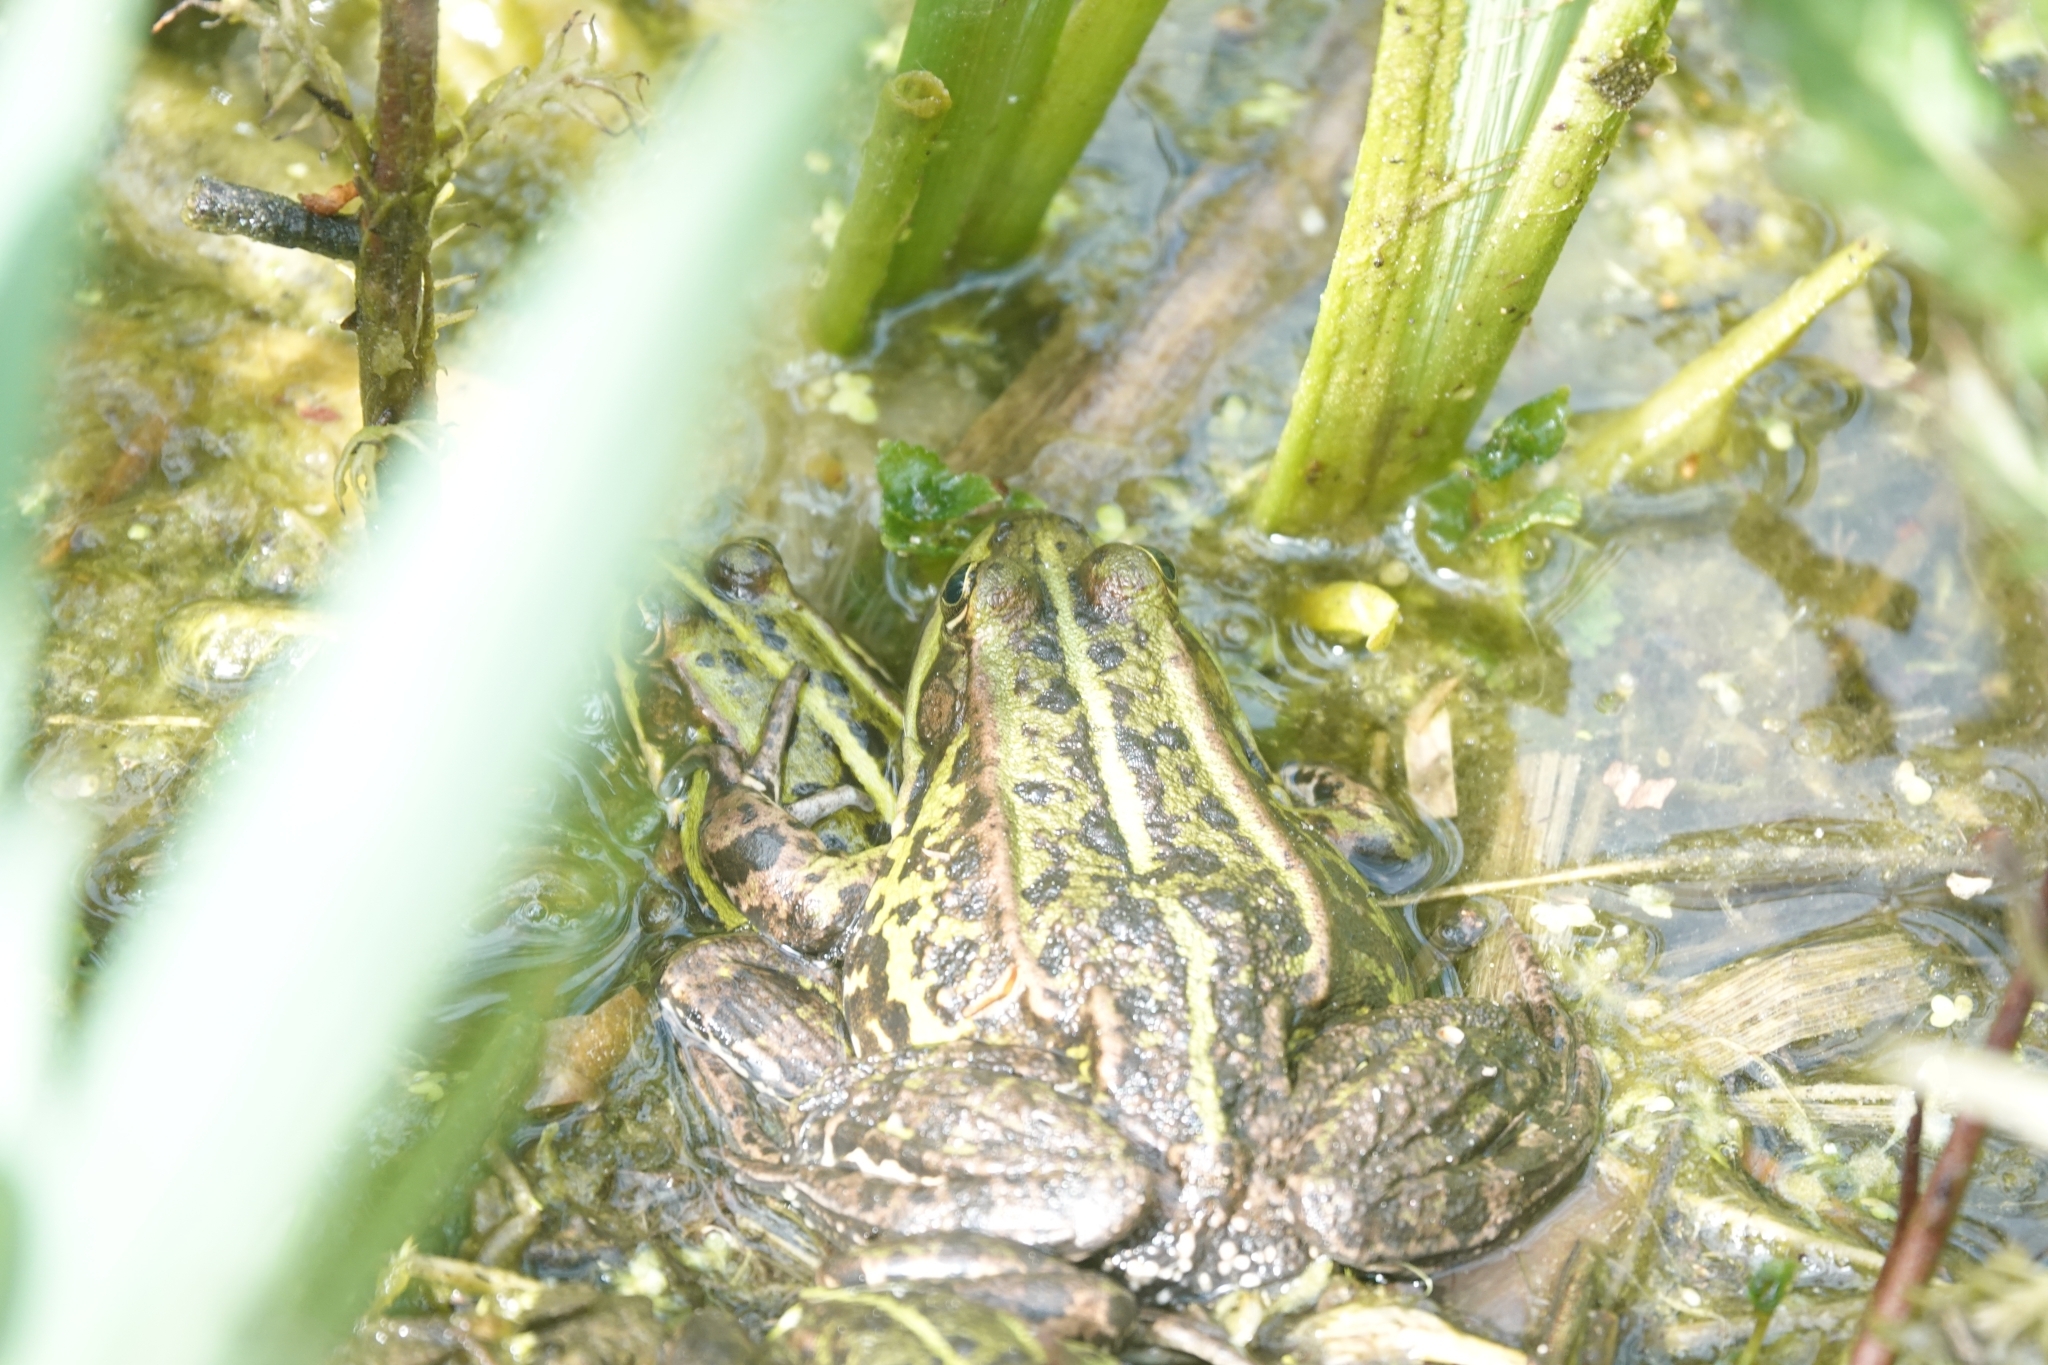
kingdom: Animalia
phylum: Chordata
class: Amphibia
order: Anura
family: Ranidae
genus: Pelophylax
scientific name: Pelophylax lessonae
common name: Pool frog
